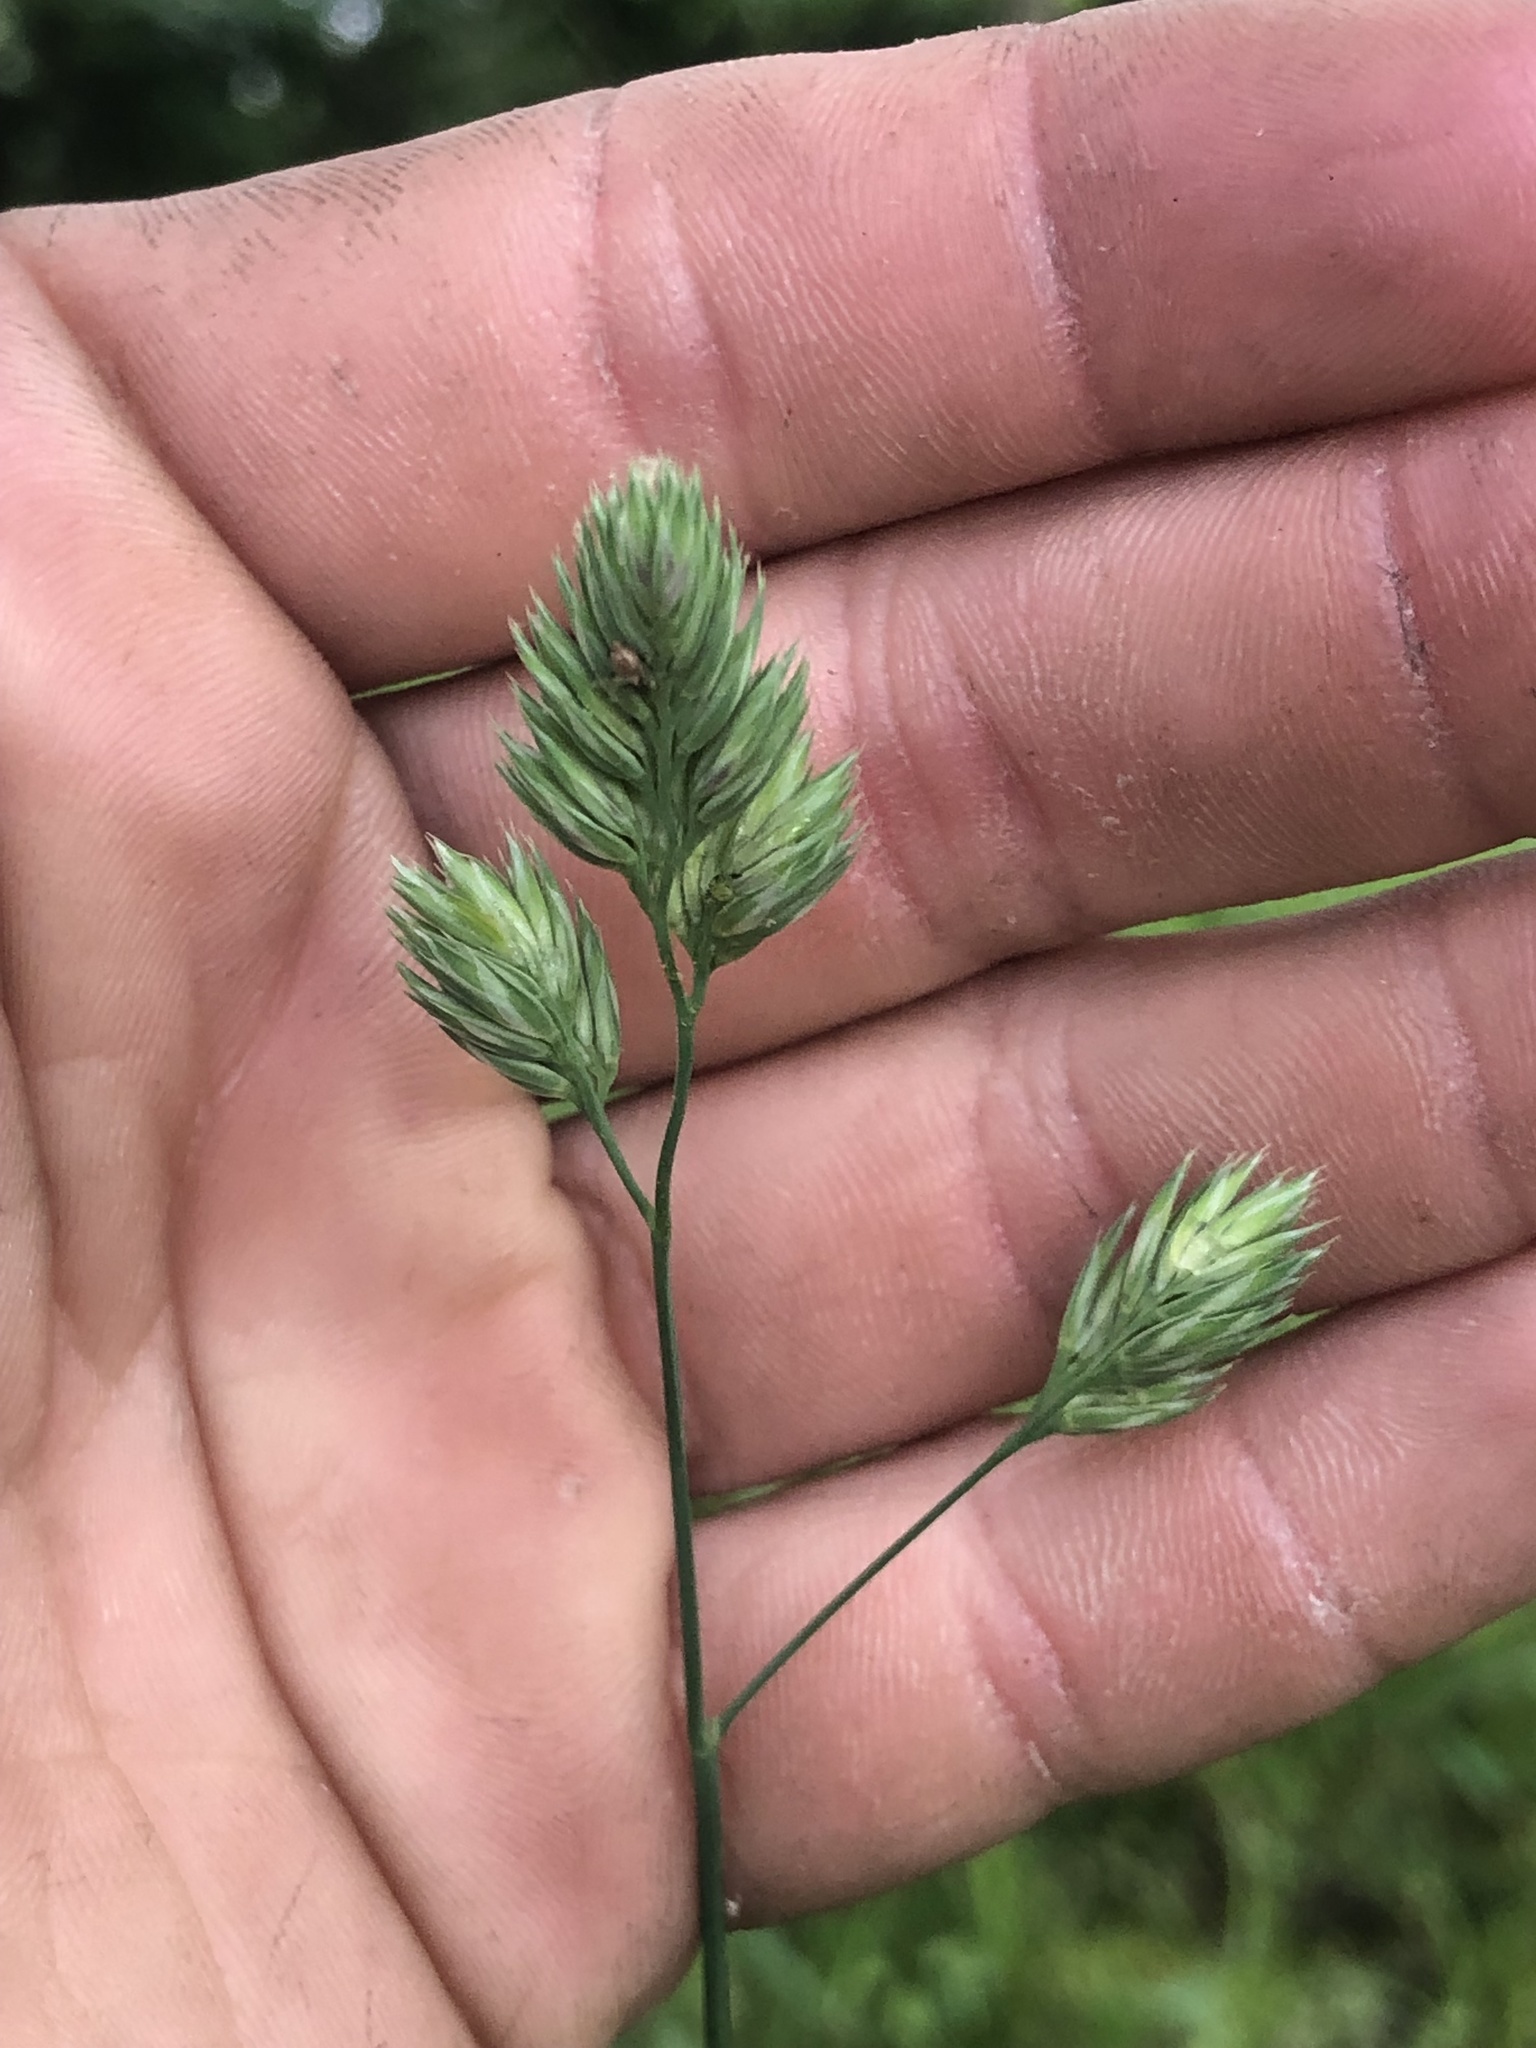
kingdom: Plantae
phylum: Tracheophyta
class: Liliopsida
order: Poales
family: Poaceae
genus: Dactylis
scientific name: Dactylis glomerata
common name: Orchardgrass
